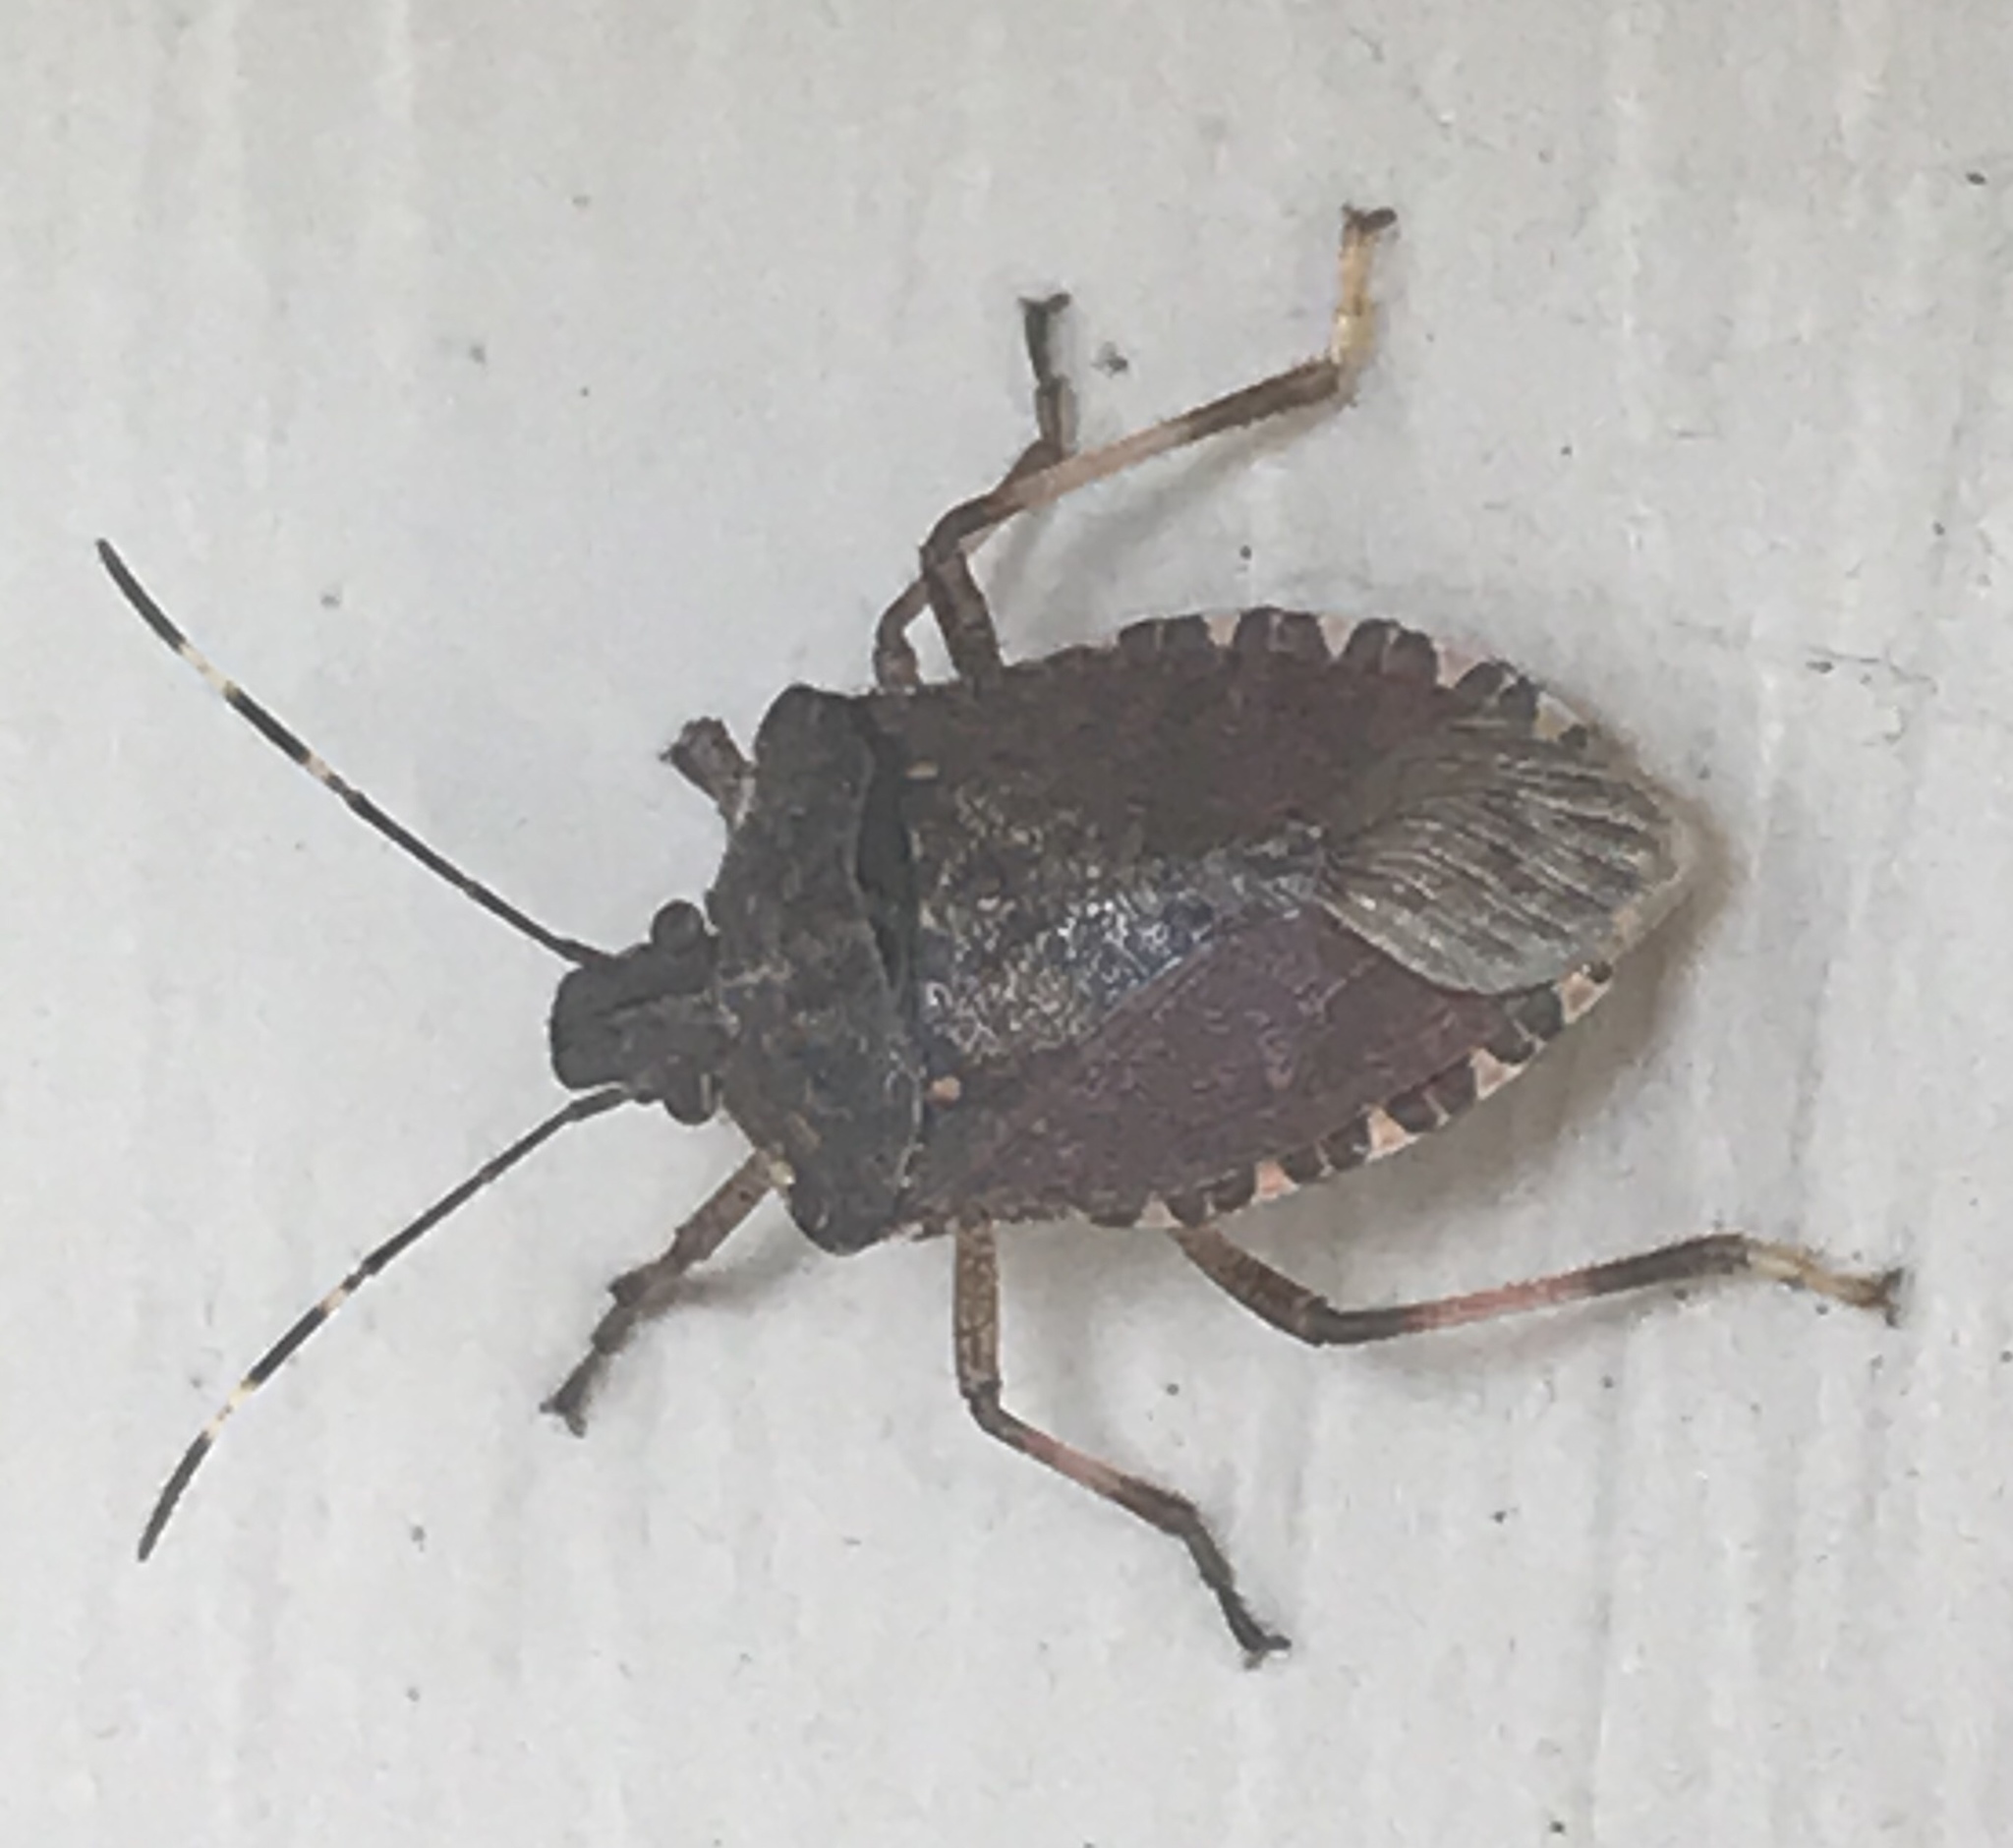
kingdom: Animalia
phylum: Arthropoda
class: Insecta
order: Hemiptera
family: Pentatomidae
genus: Halyomorpha
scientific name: Halyomorpha halys
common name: Brown marmorated stink bug
